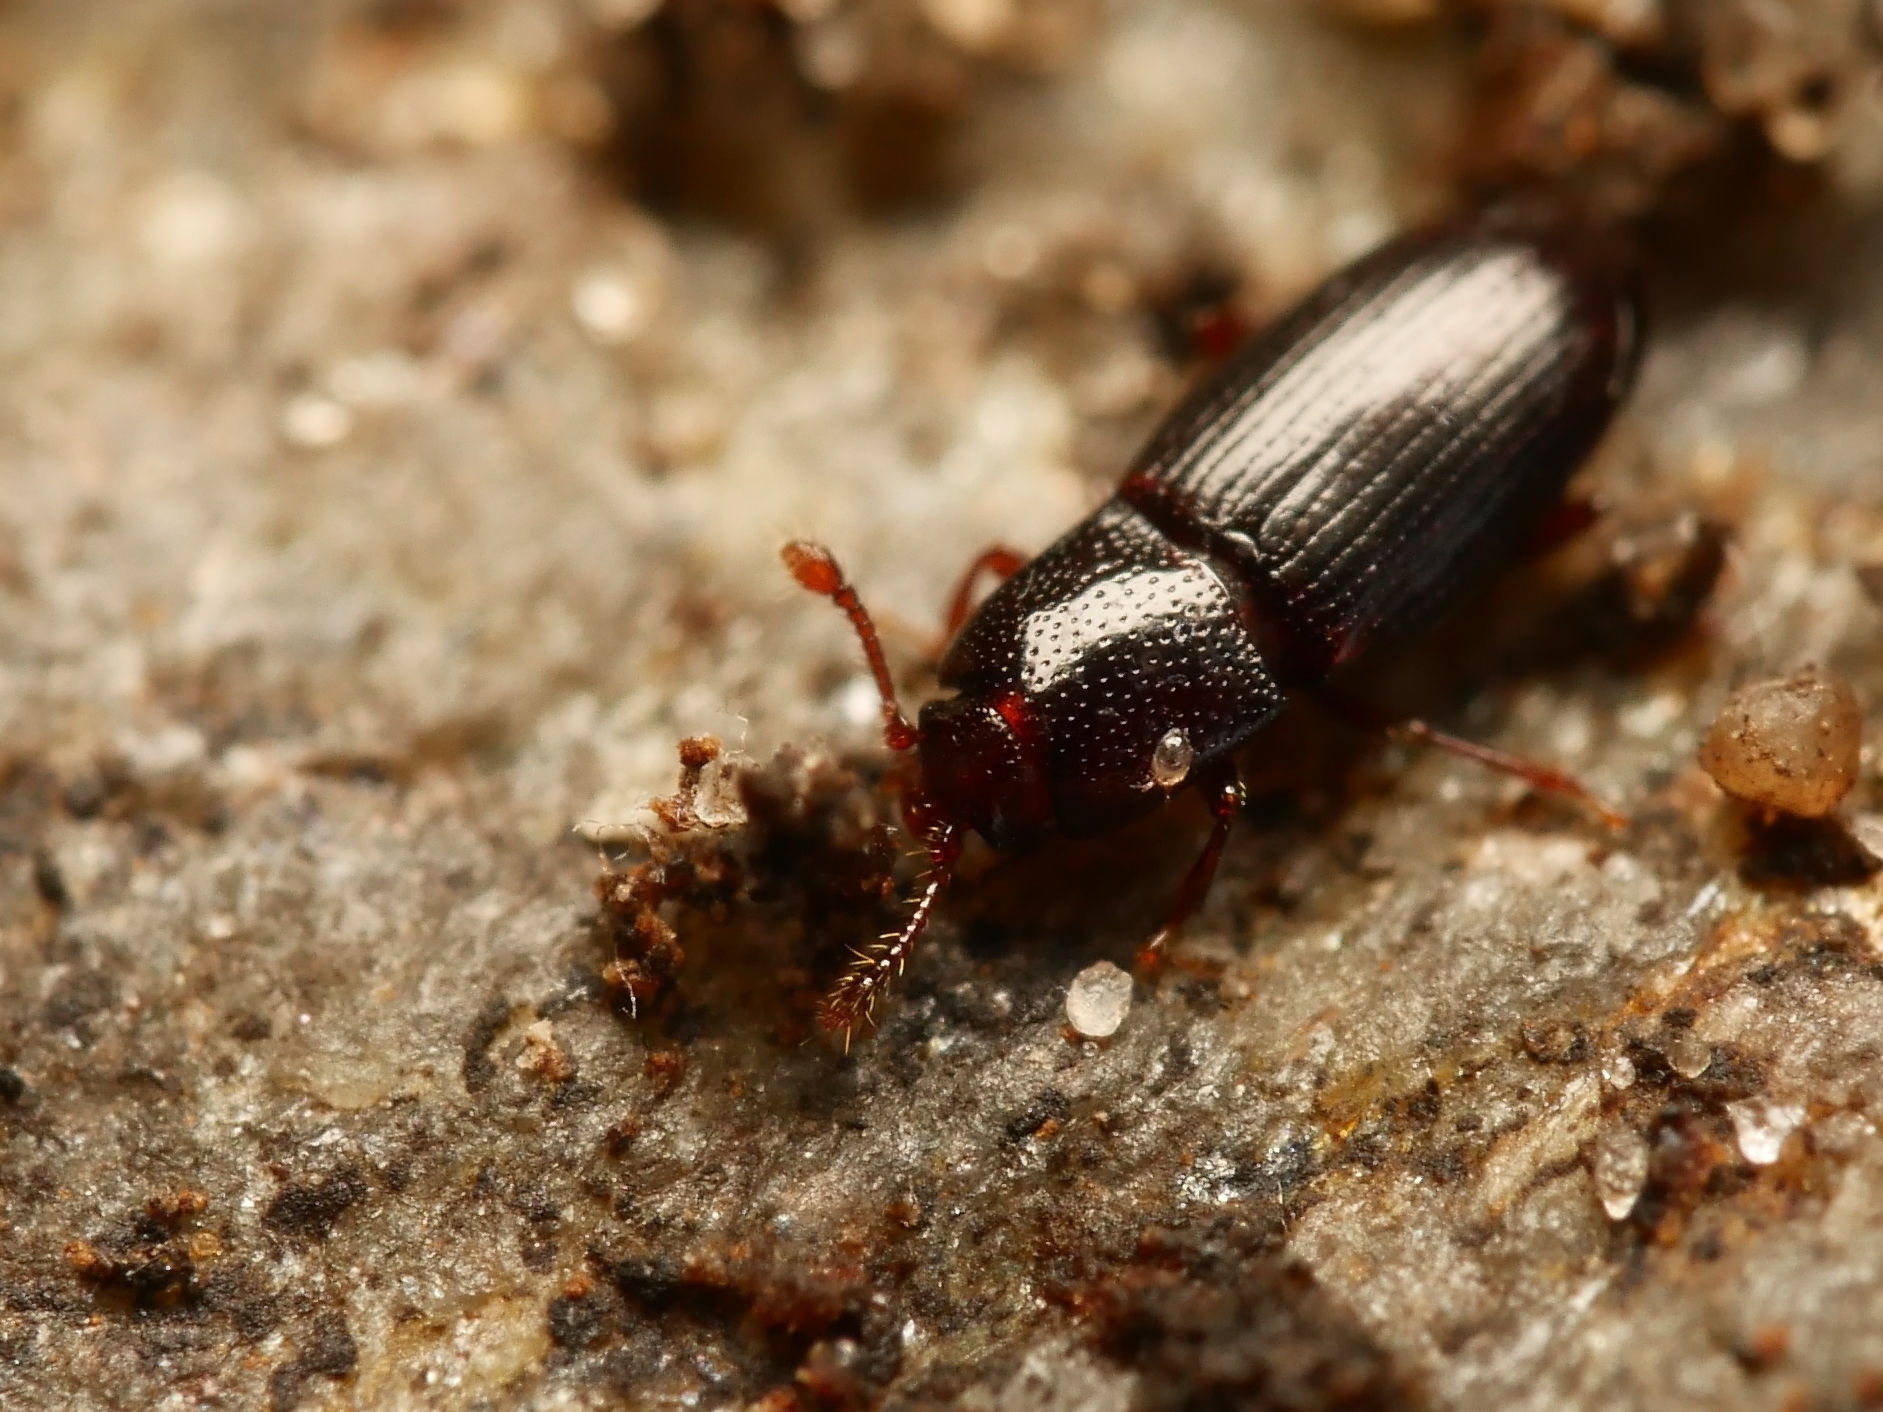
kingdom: Animalia
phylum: Arthropoda
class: Insecta
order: Coleoptera
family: Cerylonidae
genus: Cerylon
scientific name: Cerylon histeroides
